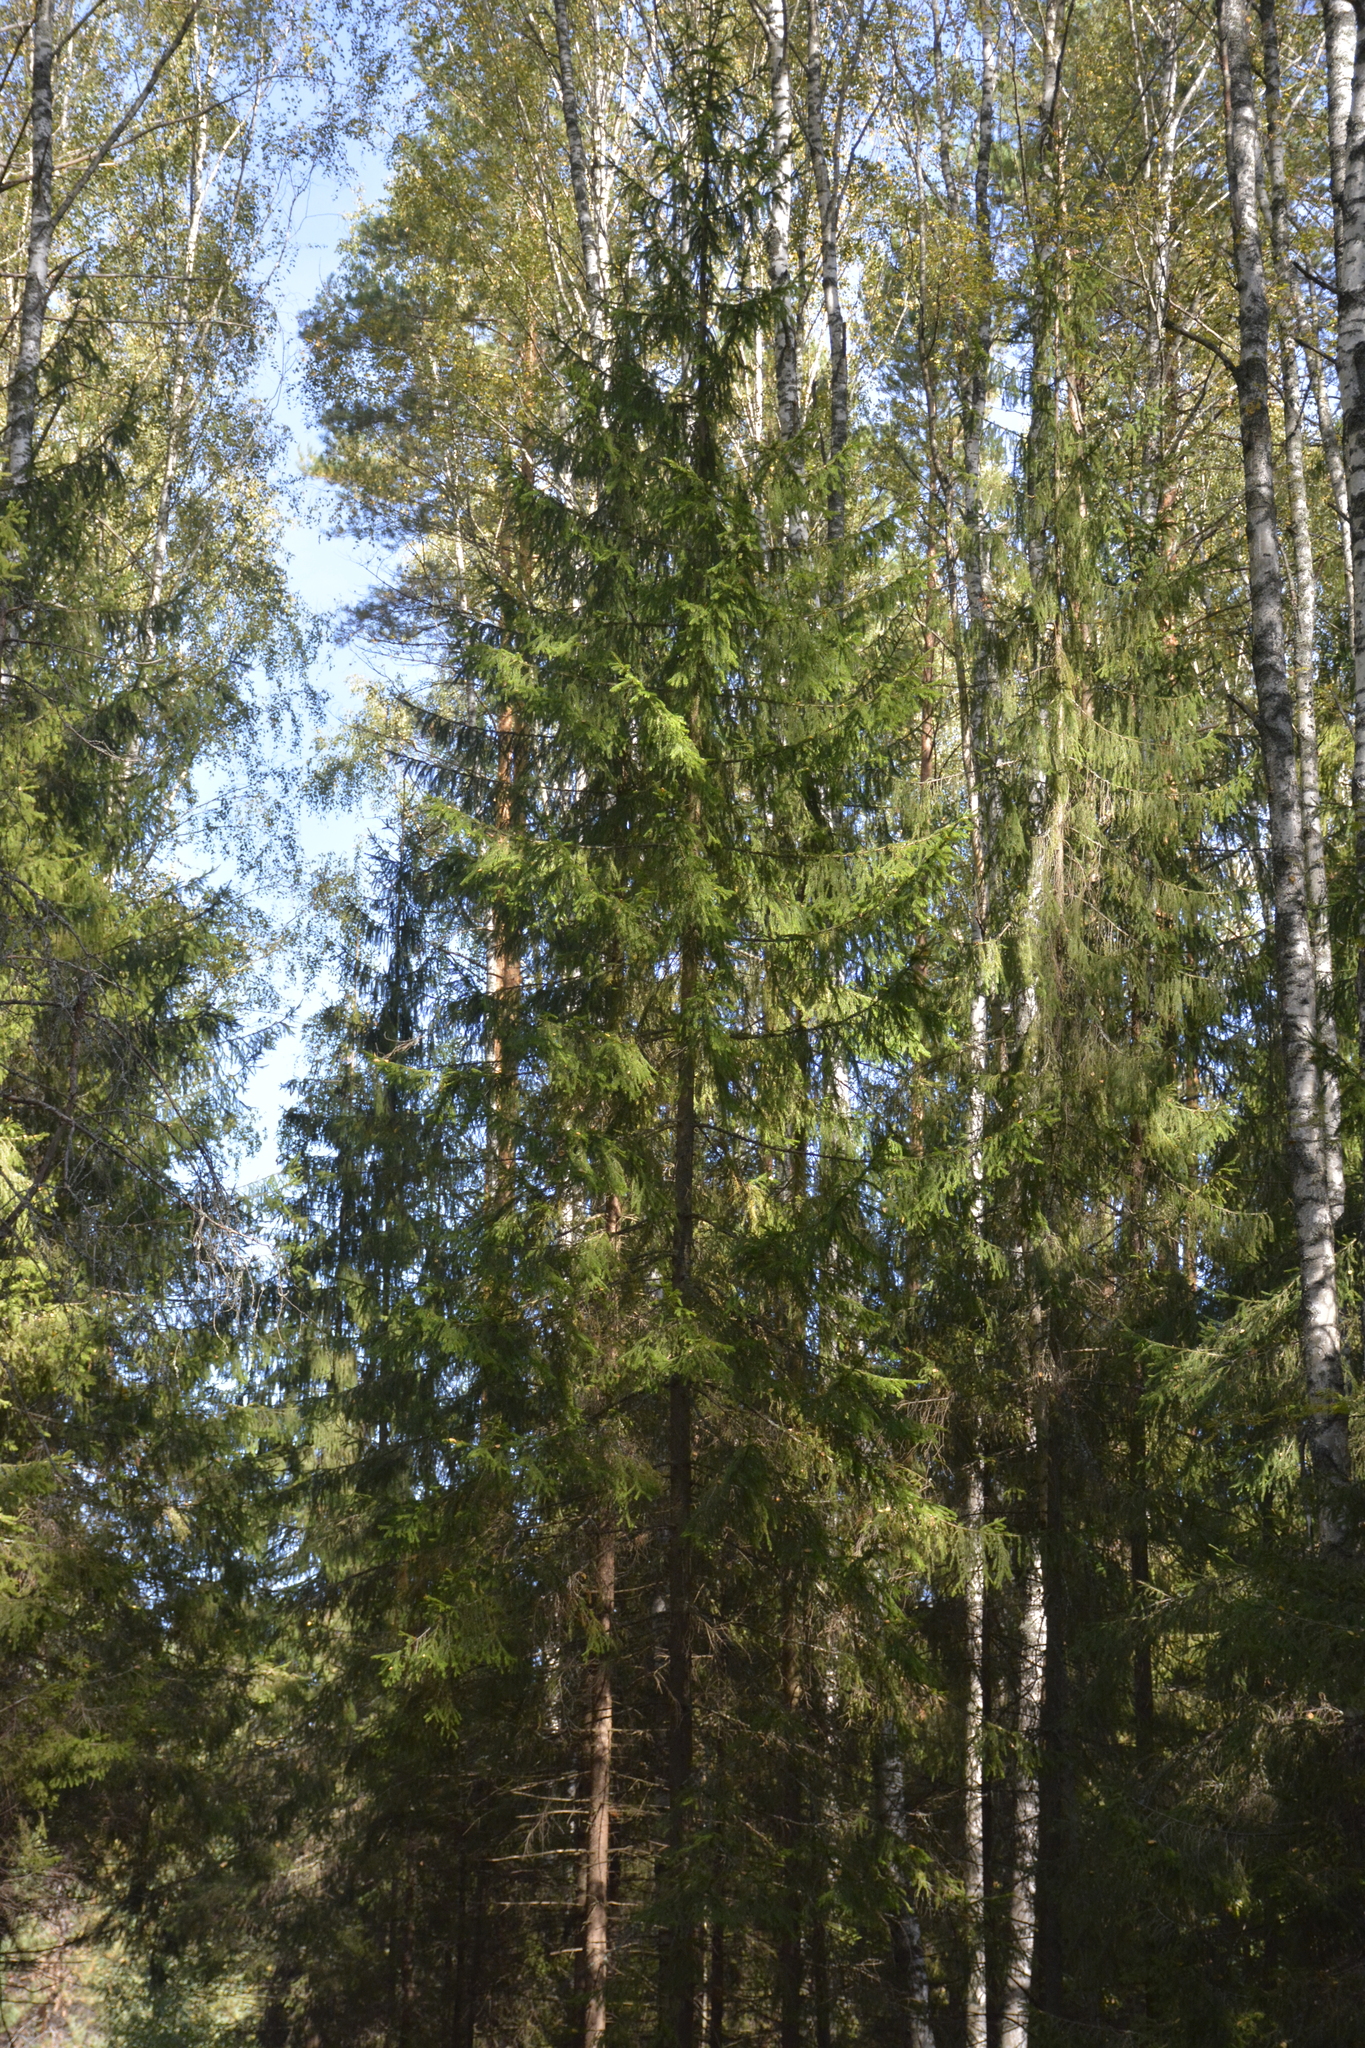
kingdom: Plantae
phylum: Tracheophyta
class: Pinopsida
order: Pinales
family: Pinaceae
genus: Picea
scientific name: Picea abies
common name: Norway spruce
